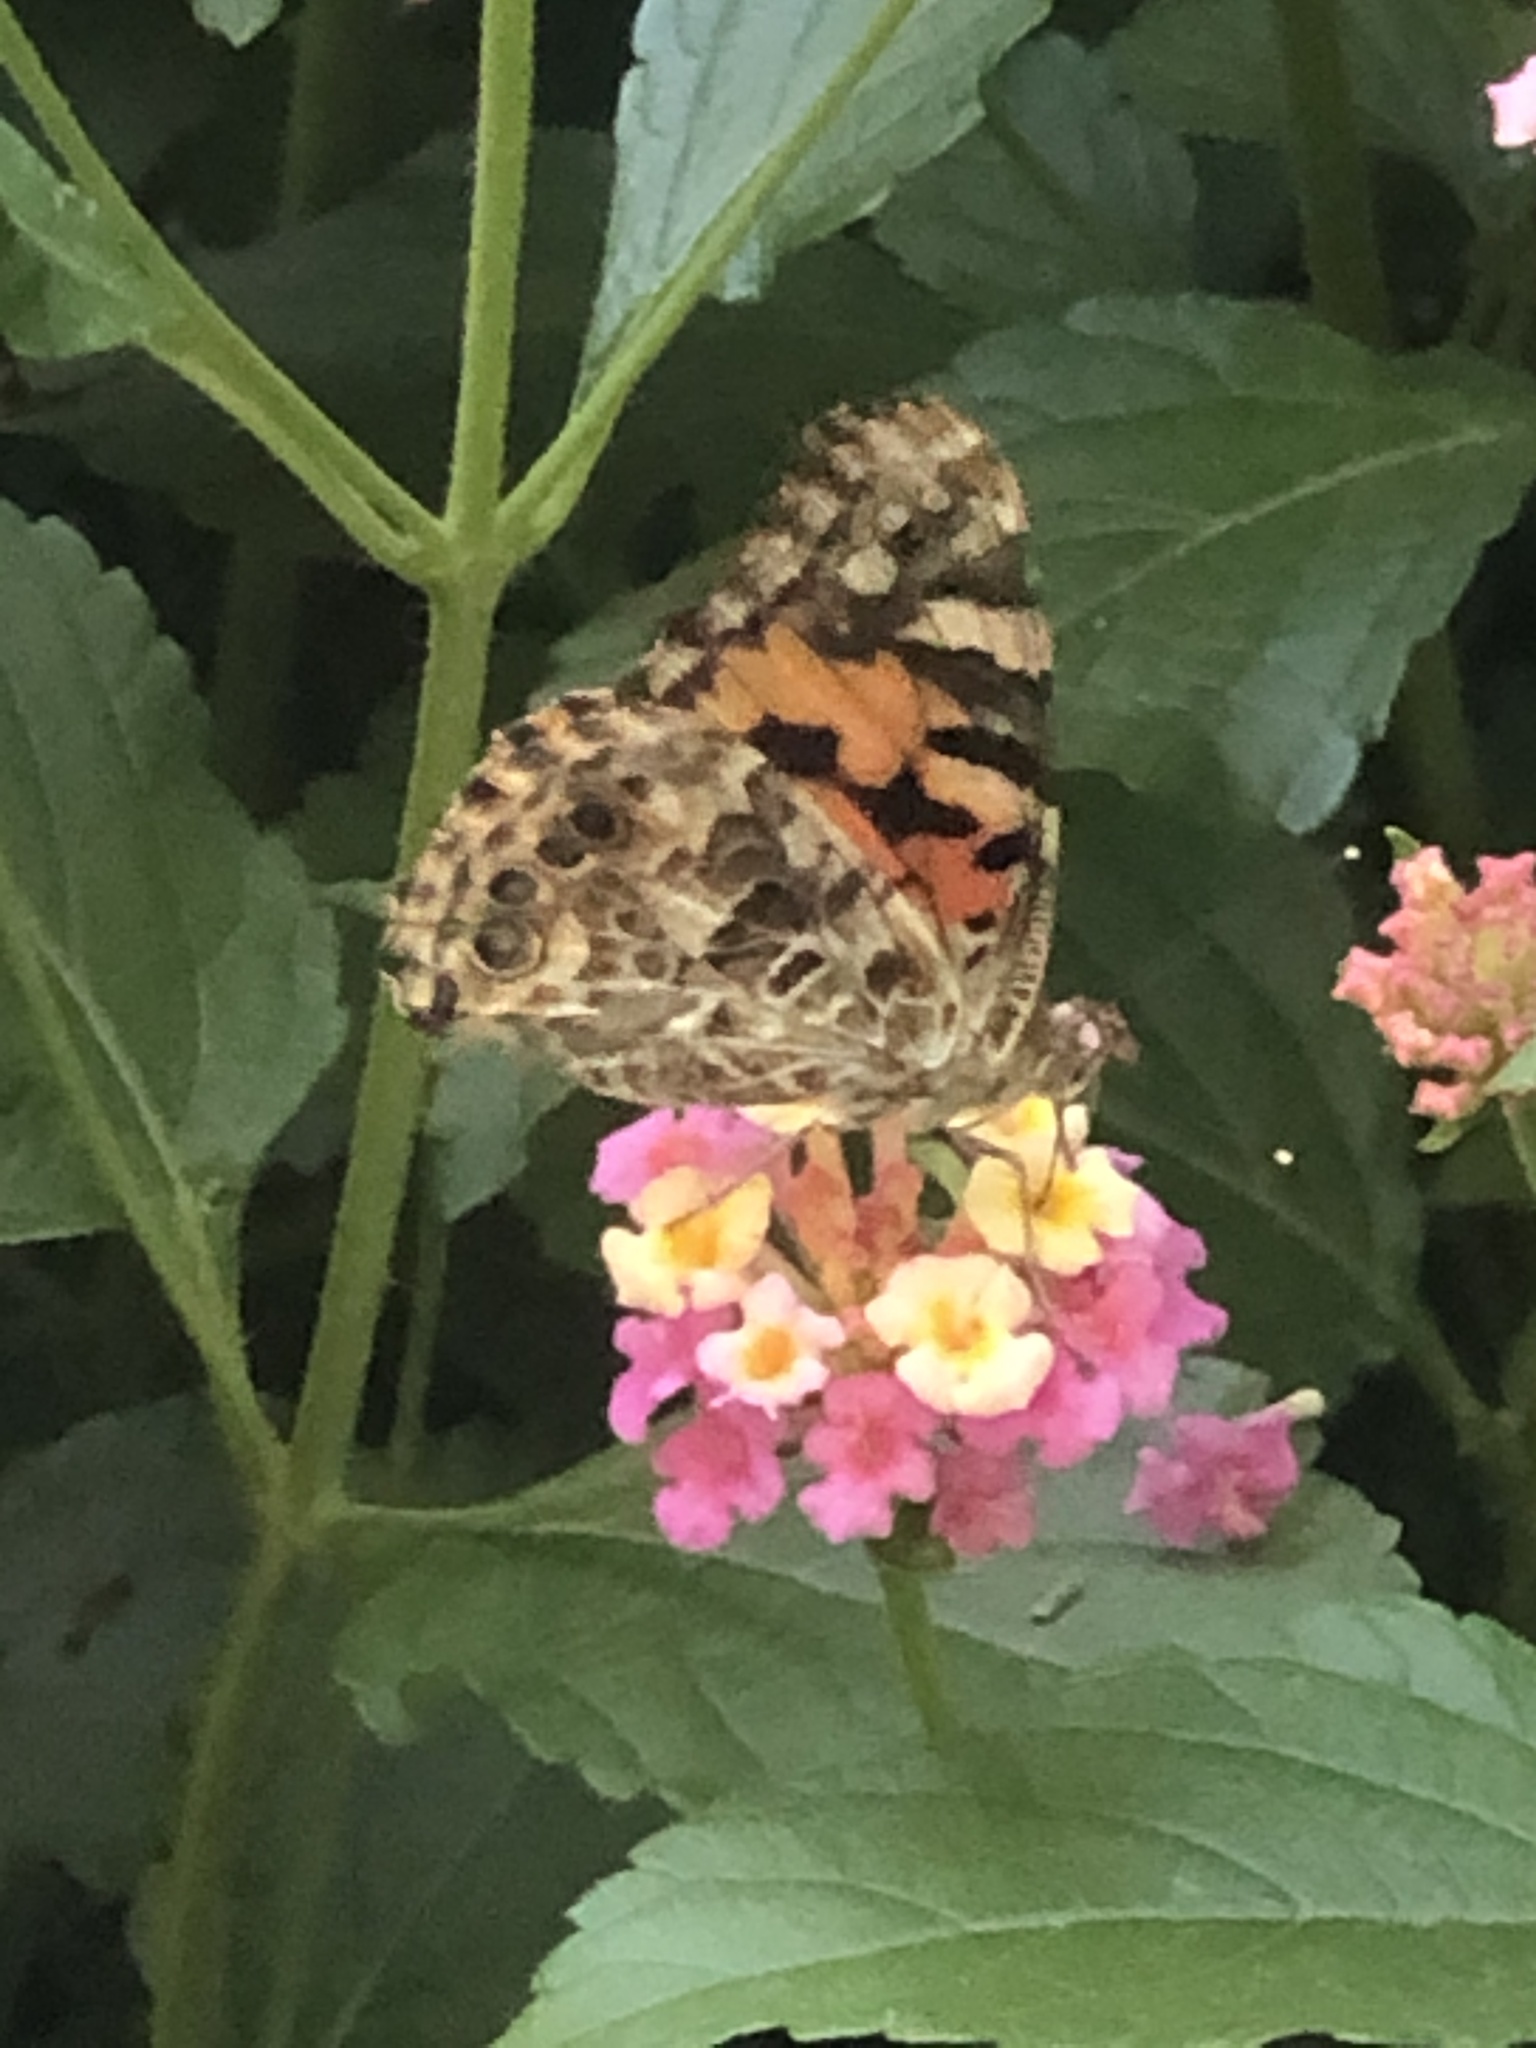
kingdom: Animalia
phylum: Arthropoda
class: Insecta
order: Lepidoptera
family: Nymphalidae
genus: Vanessa
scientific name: Vanessa cardui
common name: Painted lady
